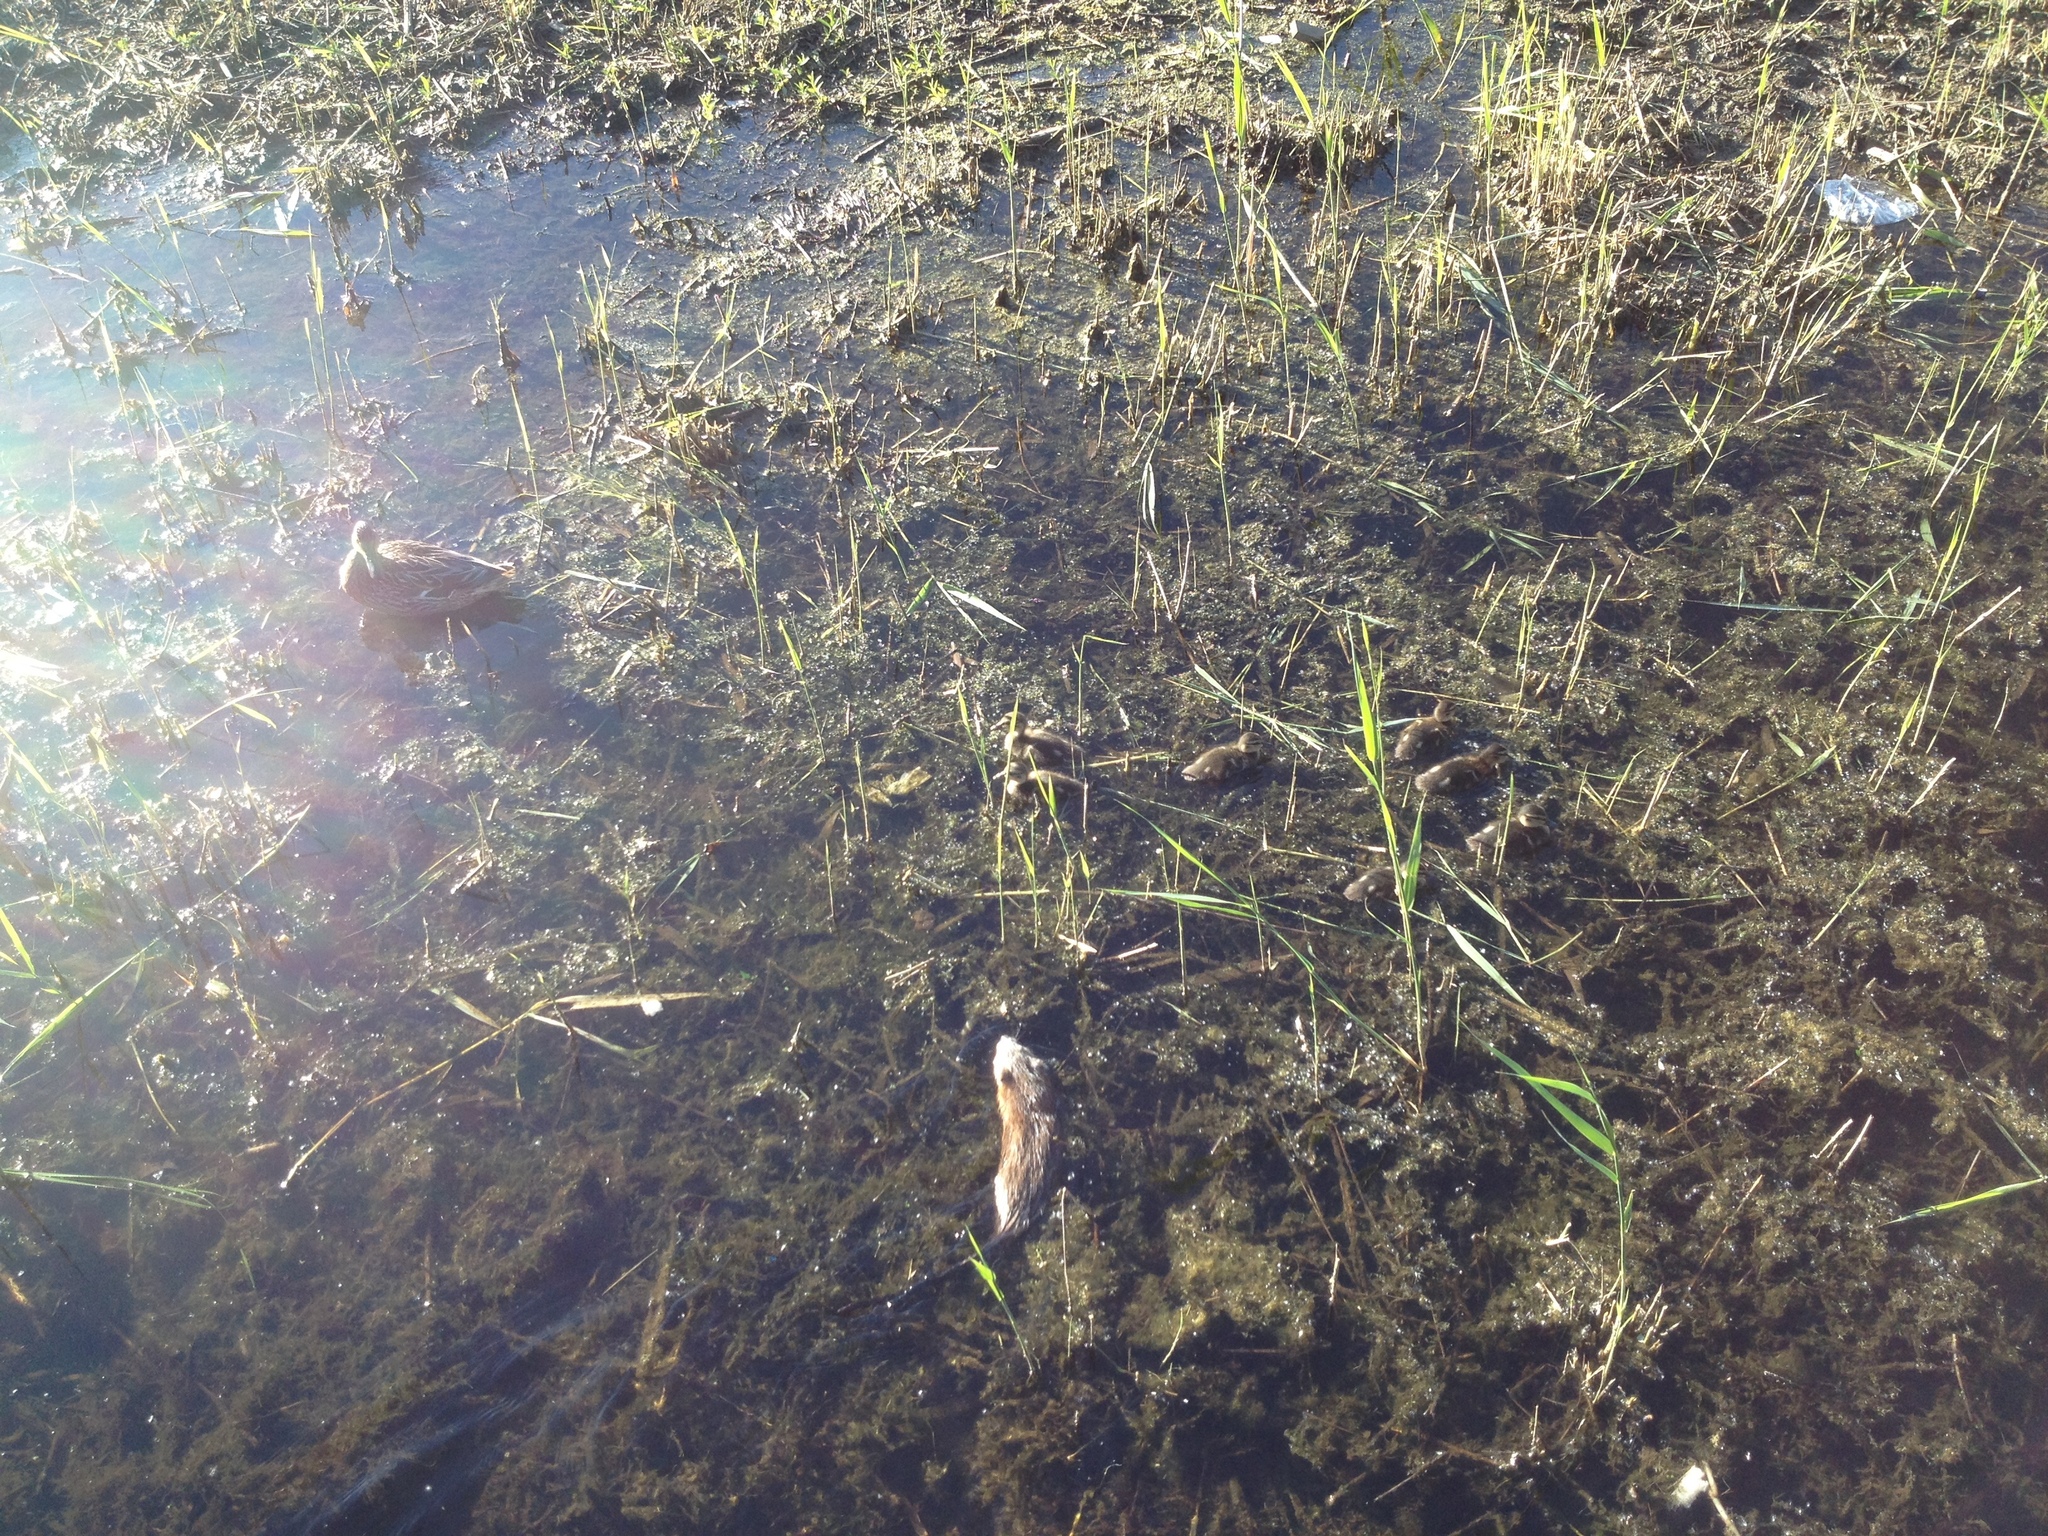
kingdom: Animalia
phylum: Chordata
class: Mammalia
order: Rodentia
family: Cricetidae
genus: Ondatra
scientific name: Ondatra zibethicus
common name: Muskrat
